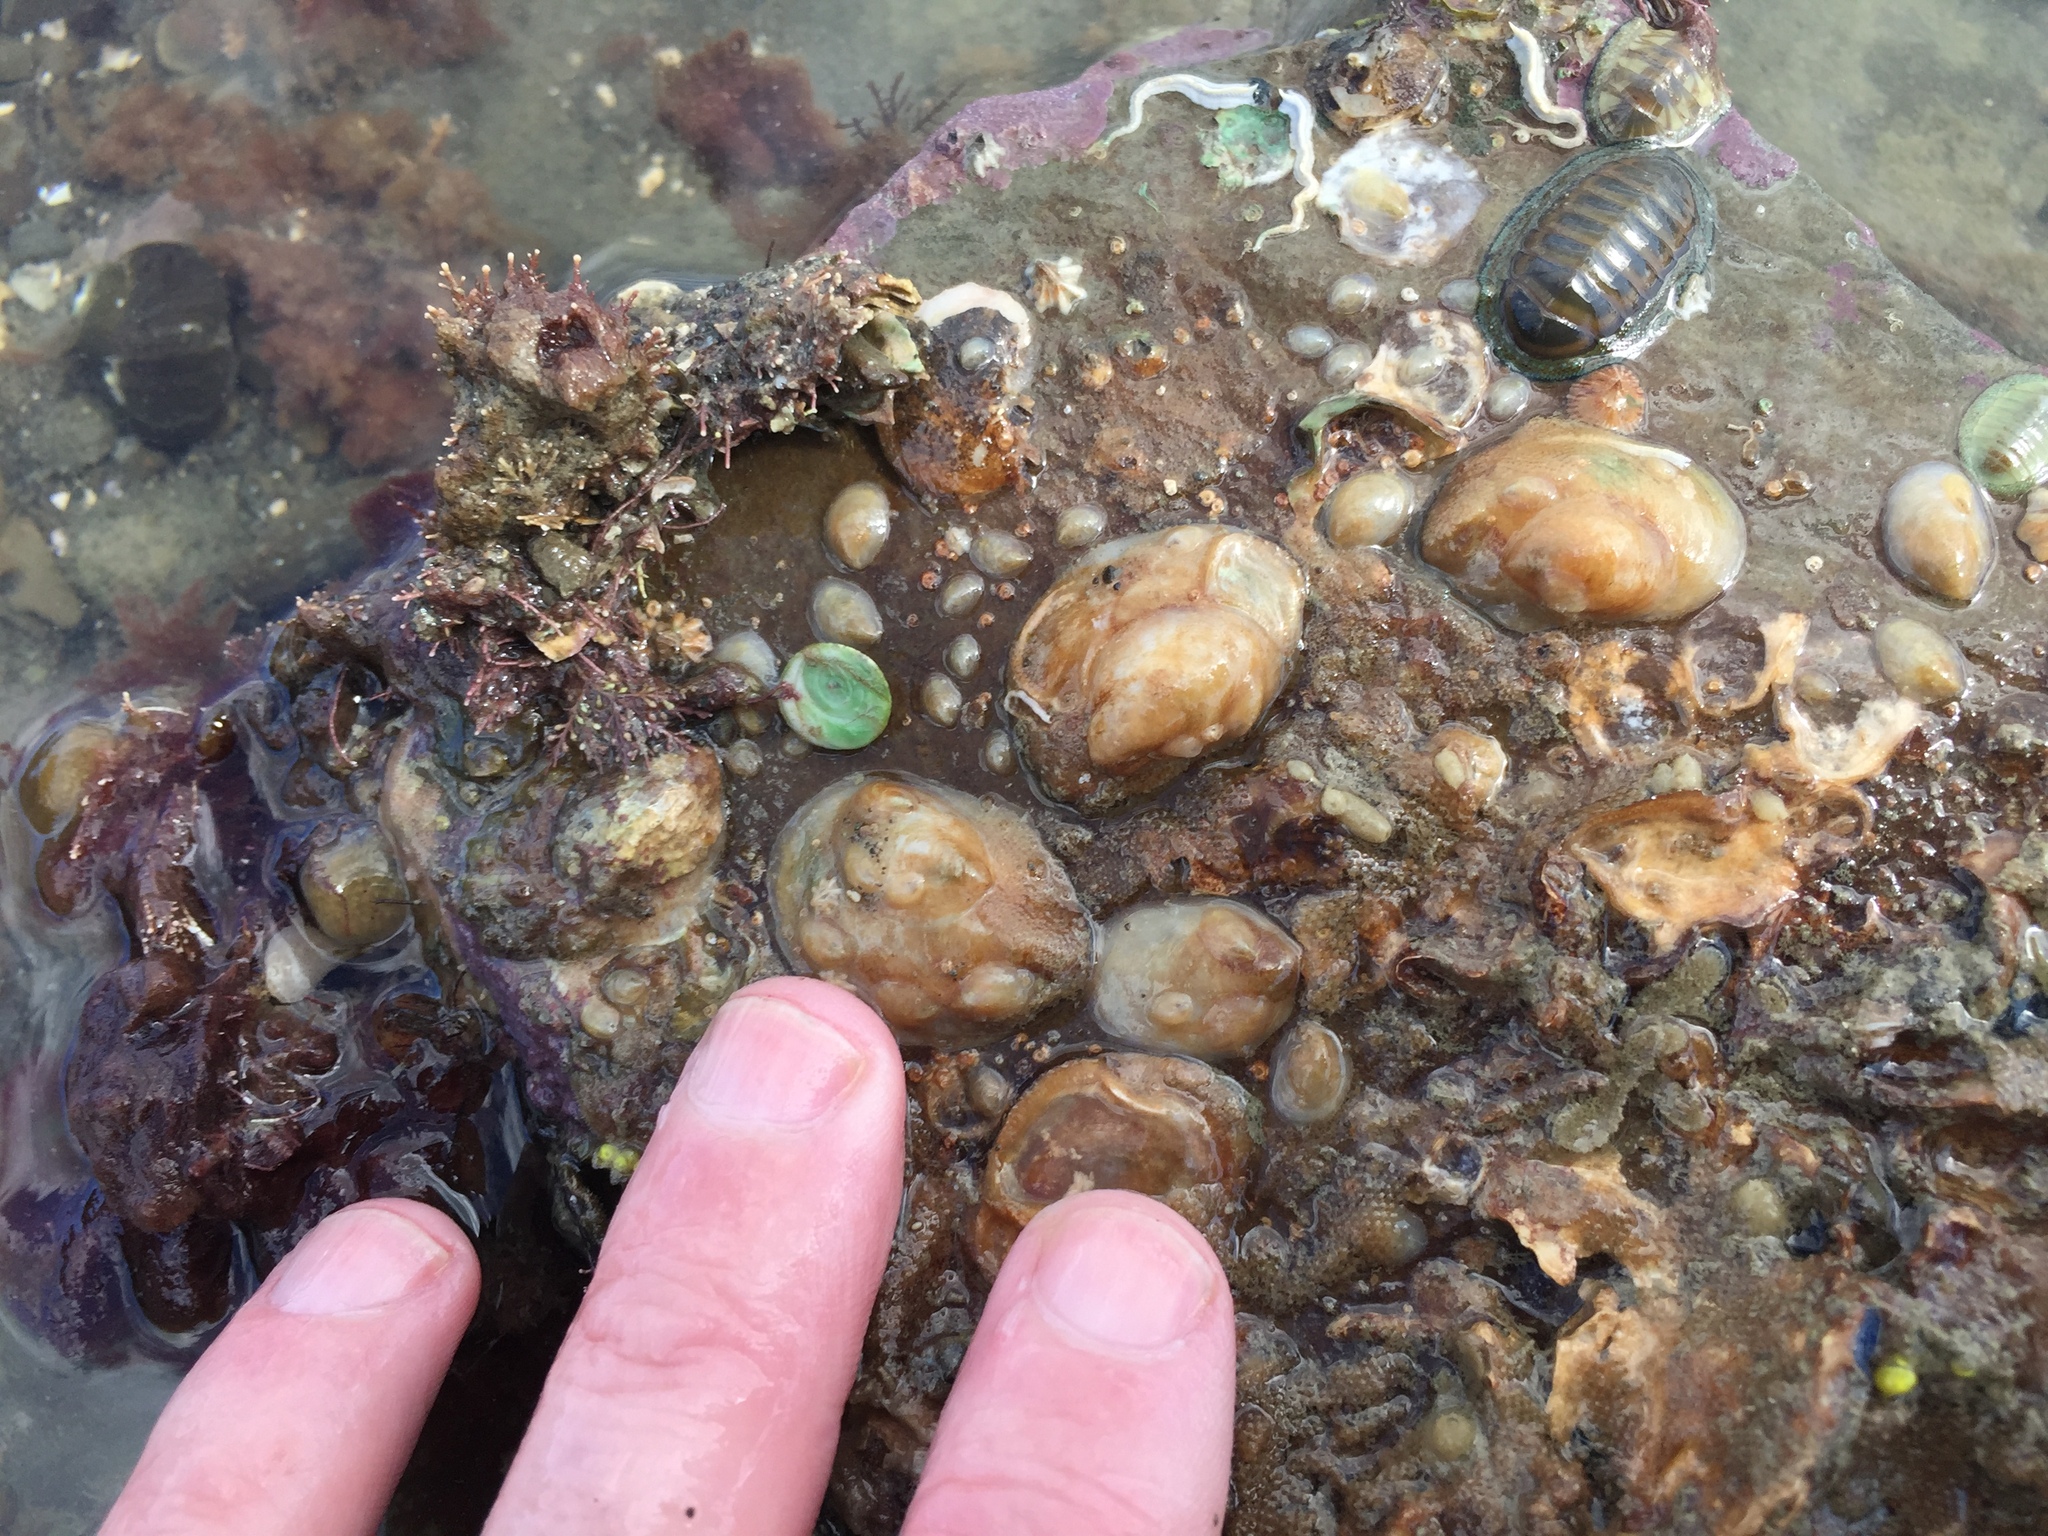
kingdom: Animalia
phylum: Mollusca
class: Gastropoda
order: Littorinimorpha
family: Calyptraeidae
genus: Maoricrypta
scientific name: Maoricrypta monoxyla
